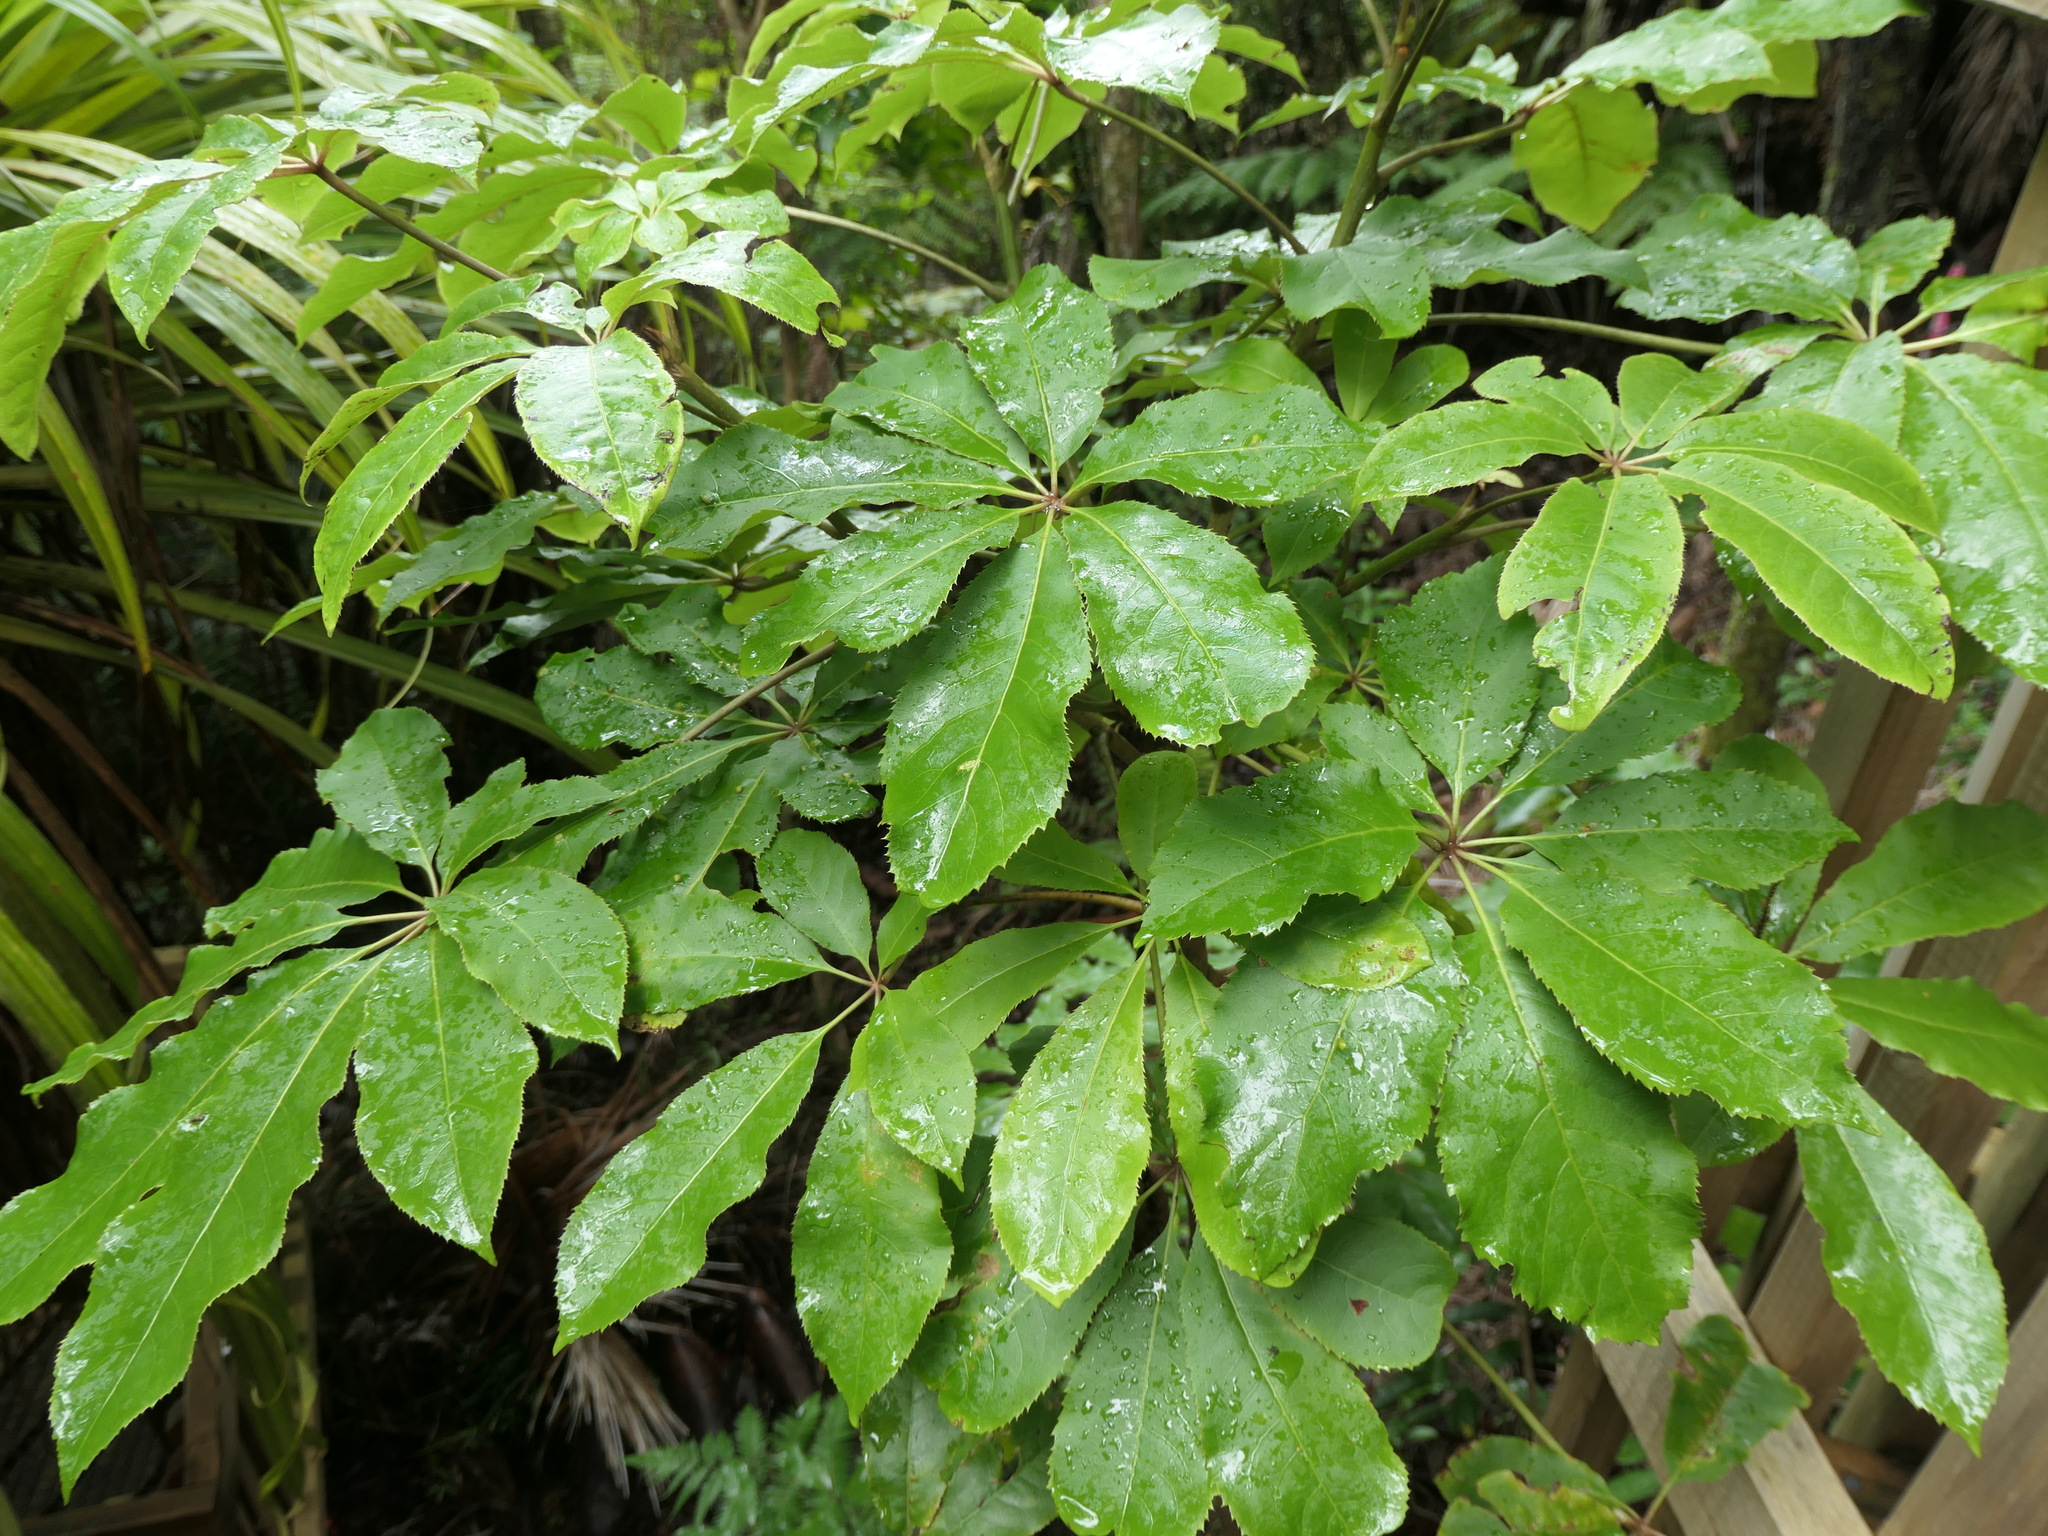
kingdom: Plantae
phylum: Tracheophyta
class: Magnoliopsida
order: Apiales
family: Araliaceae
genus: Schefflera
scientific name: Schefflera digitata
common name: Pate
